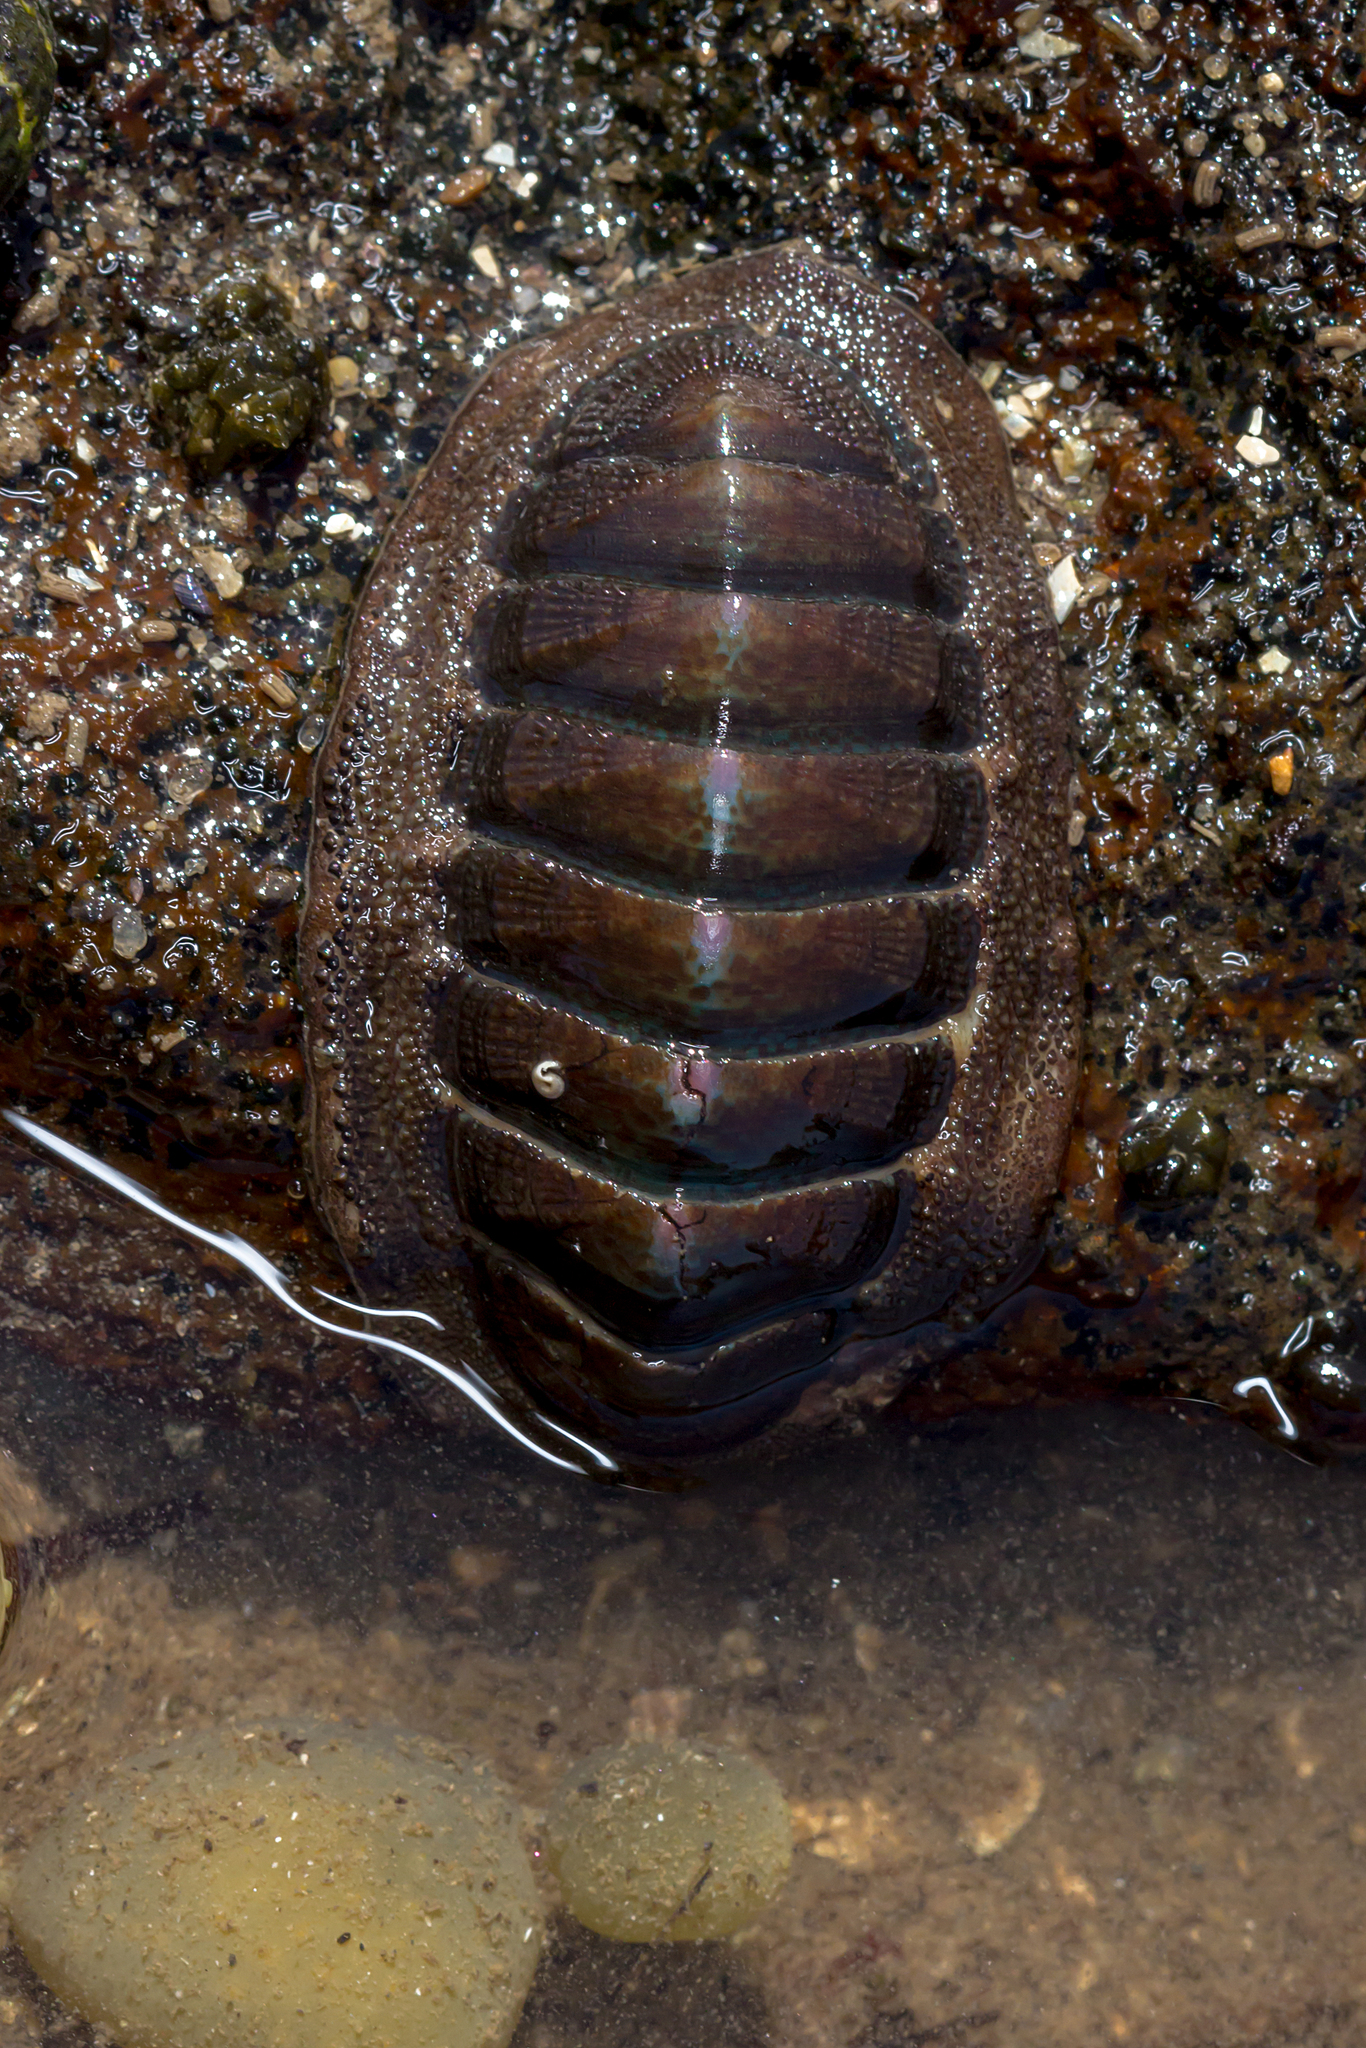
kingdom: Animalia
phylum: Mollusca
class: Polyplacophora
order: Chitonida
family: Ischnochitonidae
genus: Ischnochiton
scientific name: Ischnochiton australis
